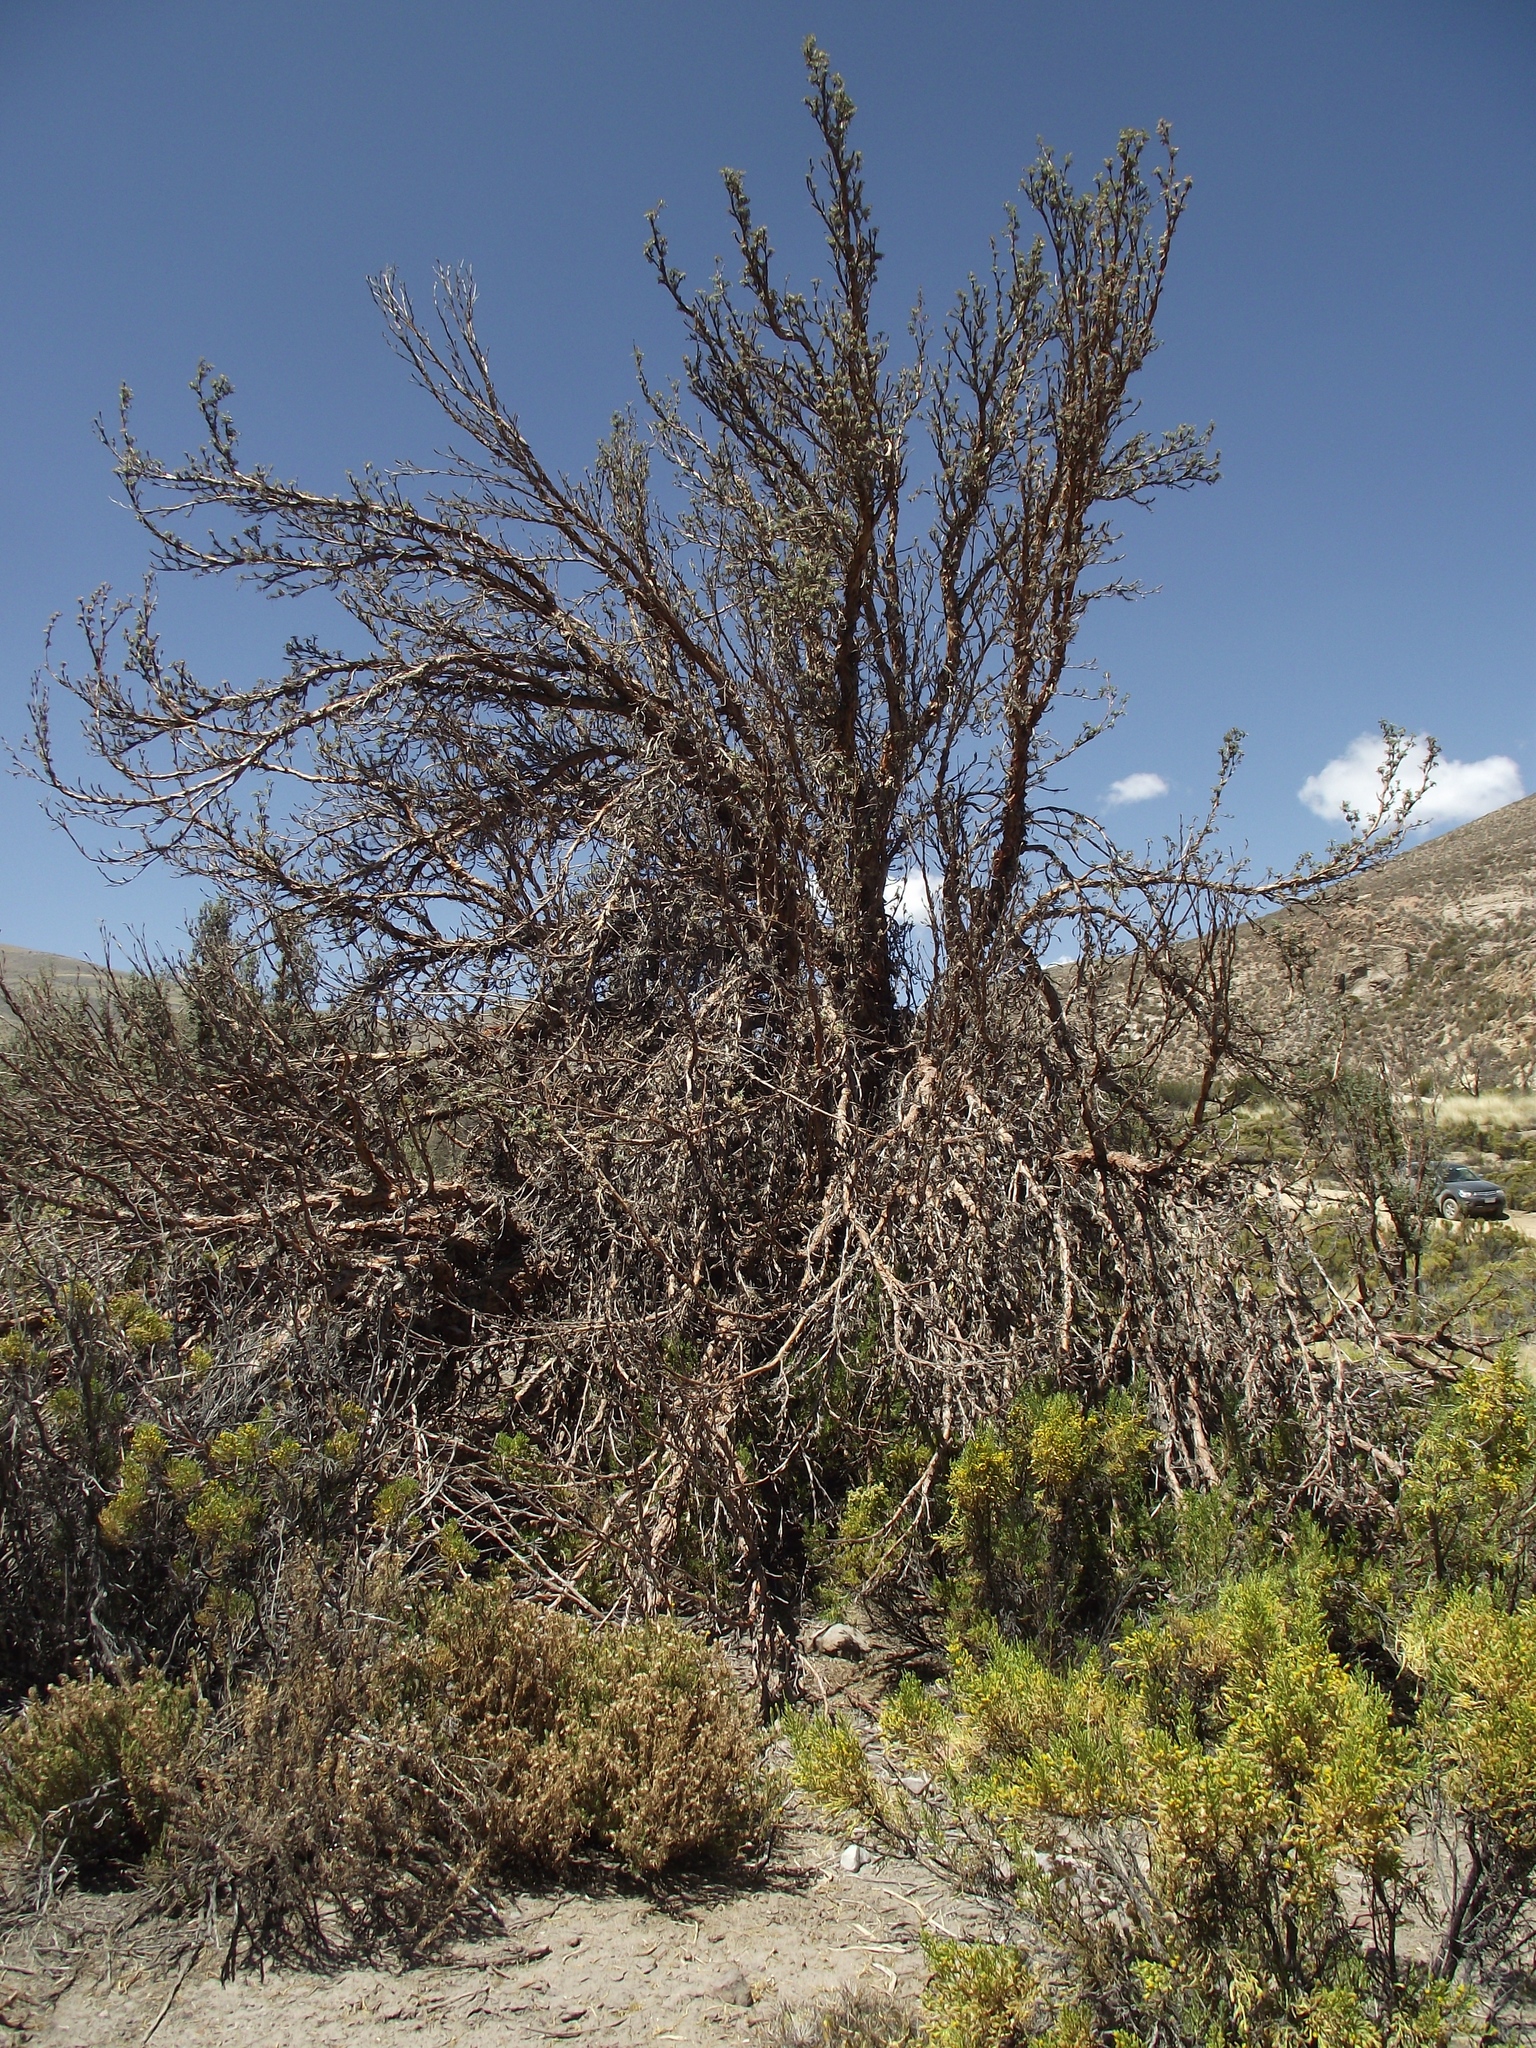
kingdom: Plantae
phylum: Tracheophyta
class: Magnoliopsida
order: Rosales
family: Rosaceae
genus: Polylepis
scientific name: Polylepis rugulosa
